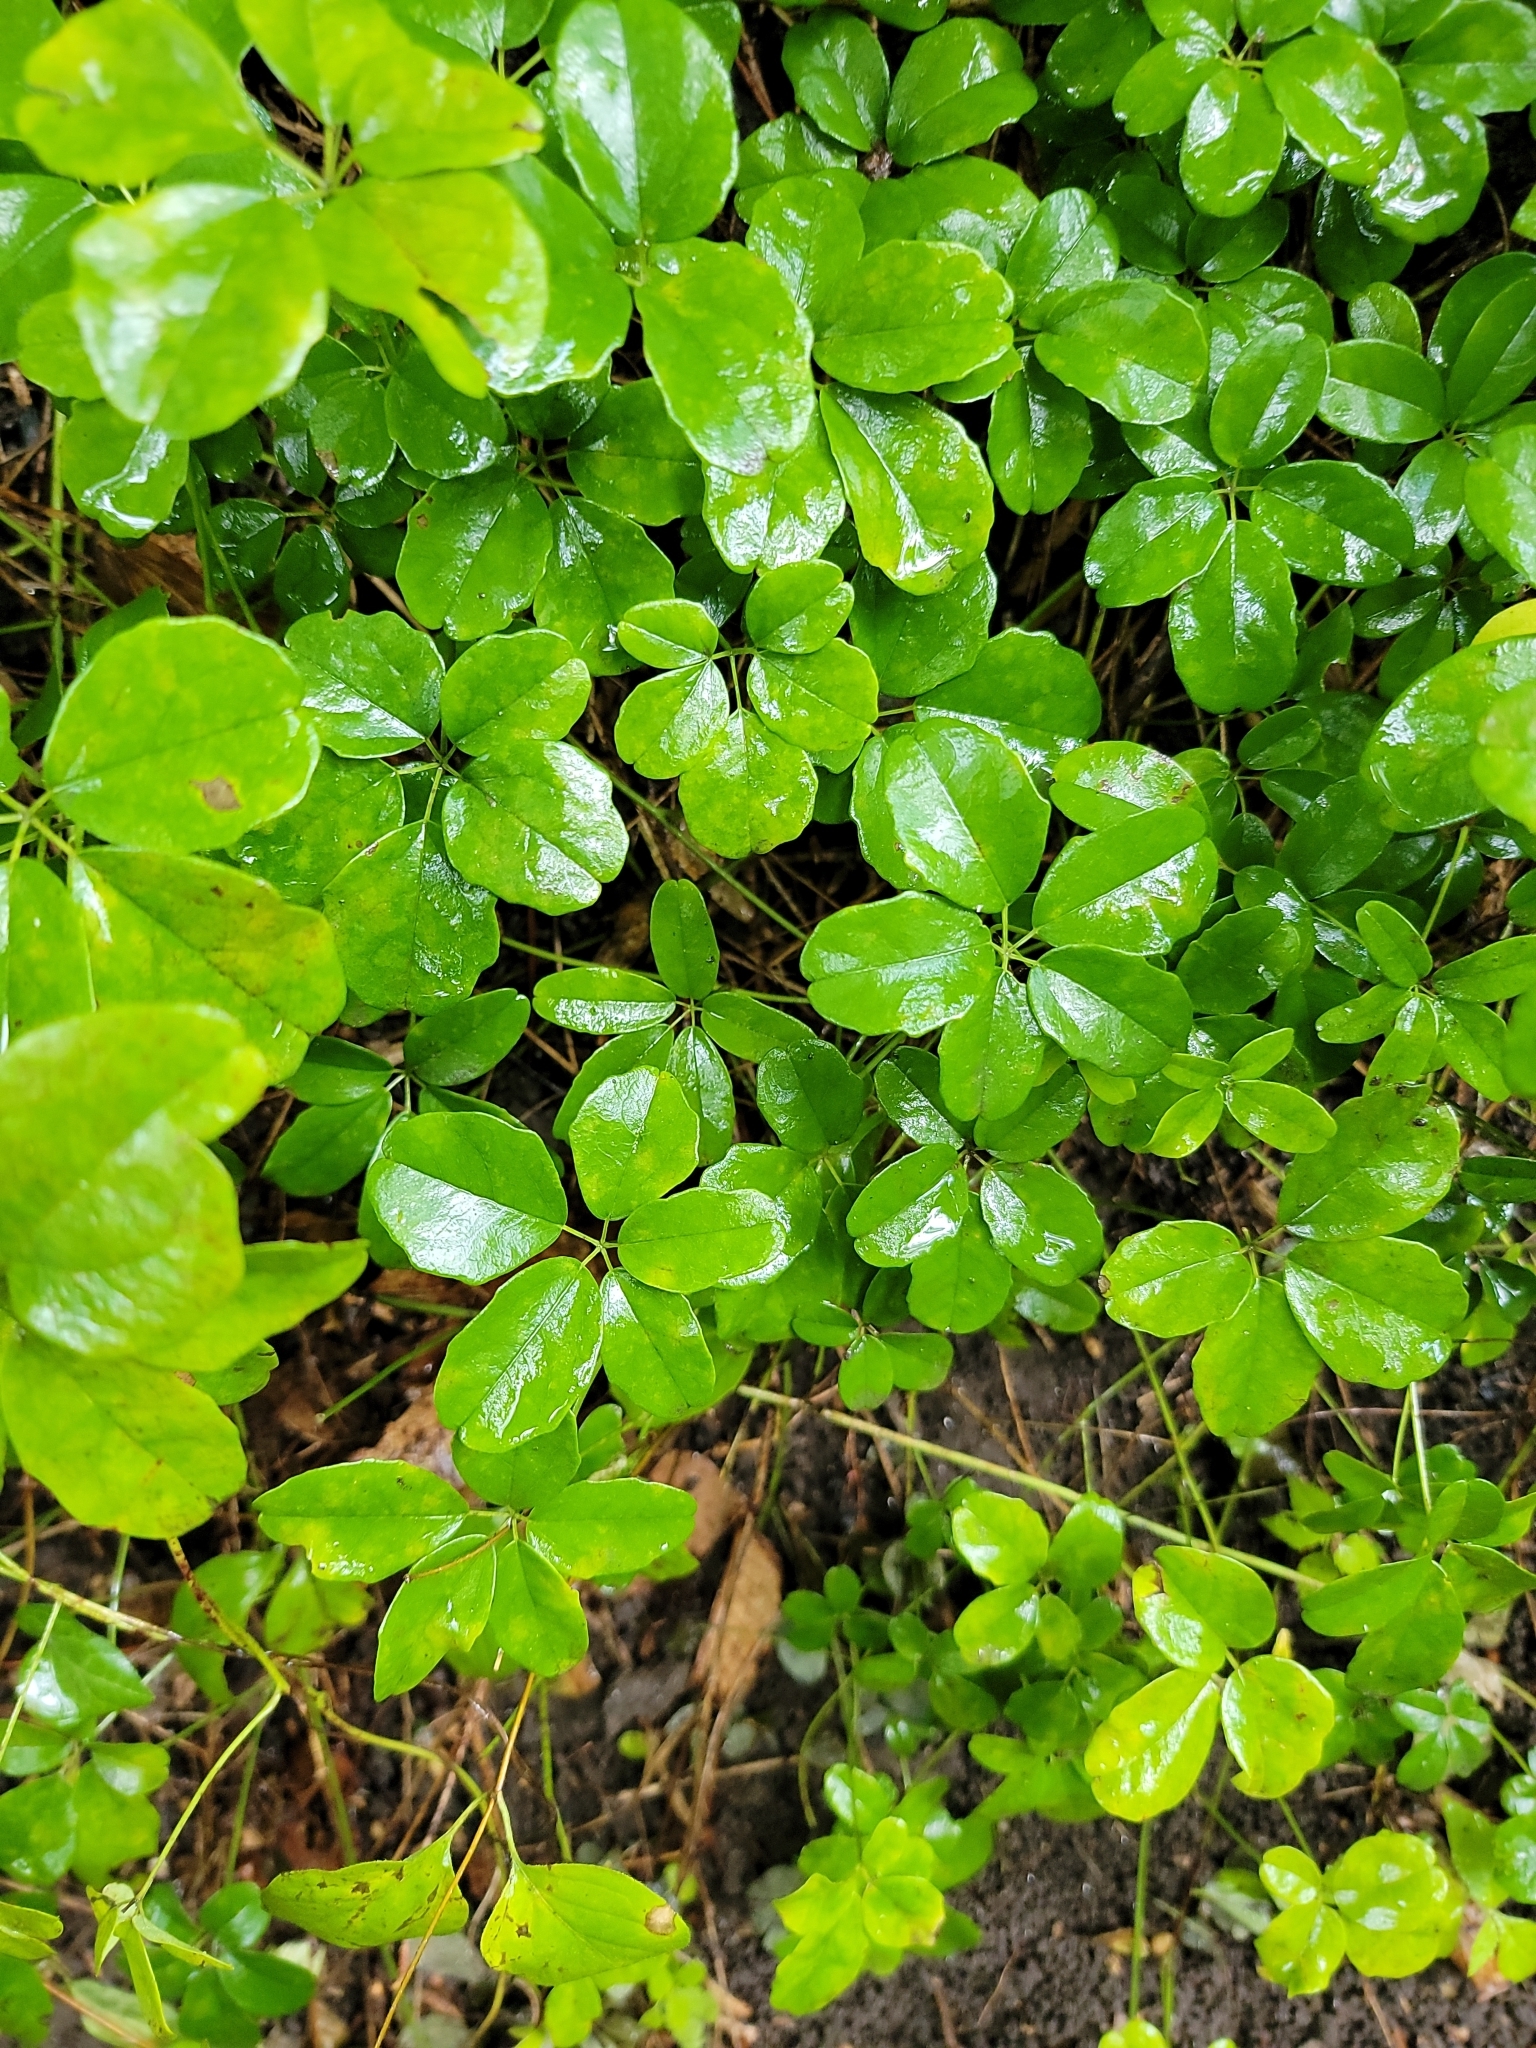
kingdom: Plantae
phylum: Tracheophyta
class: Magnoliopsida
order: Ranunculales
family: Lardizabalaceae
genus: Akebia
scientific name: Akebia quinata
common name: Five-leaf akebia
